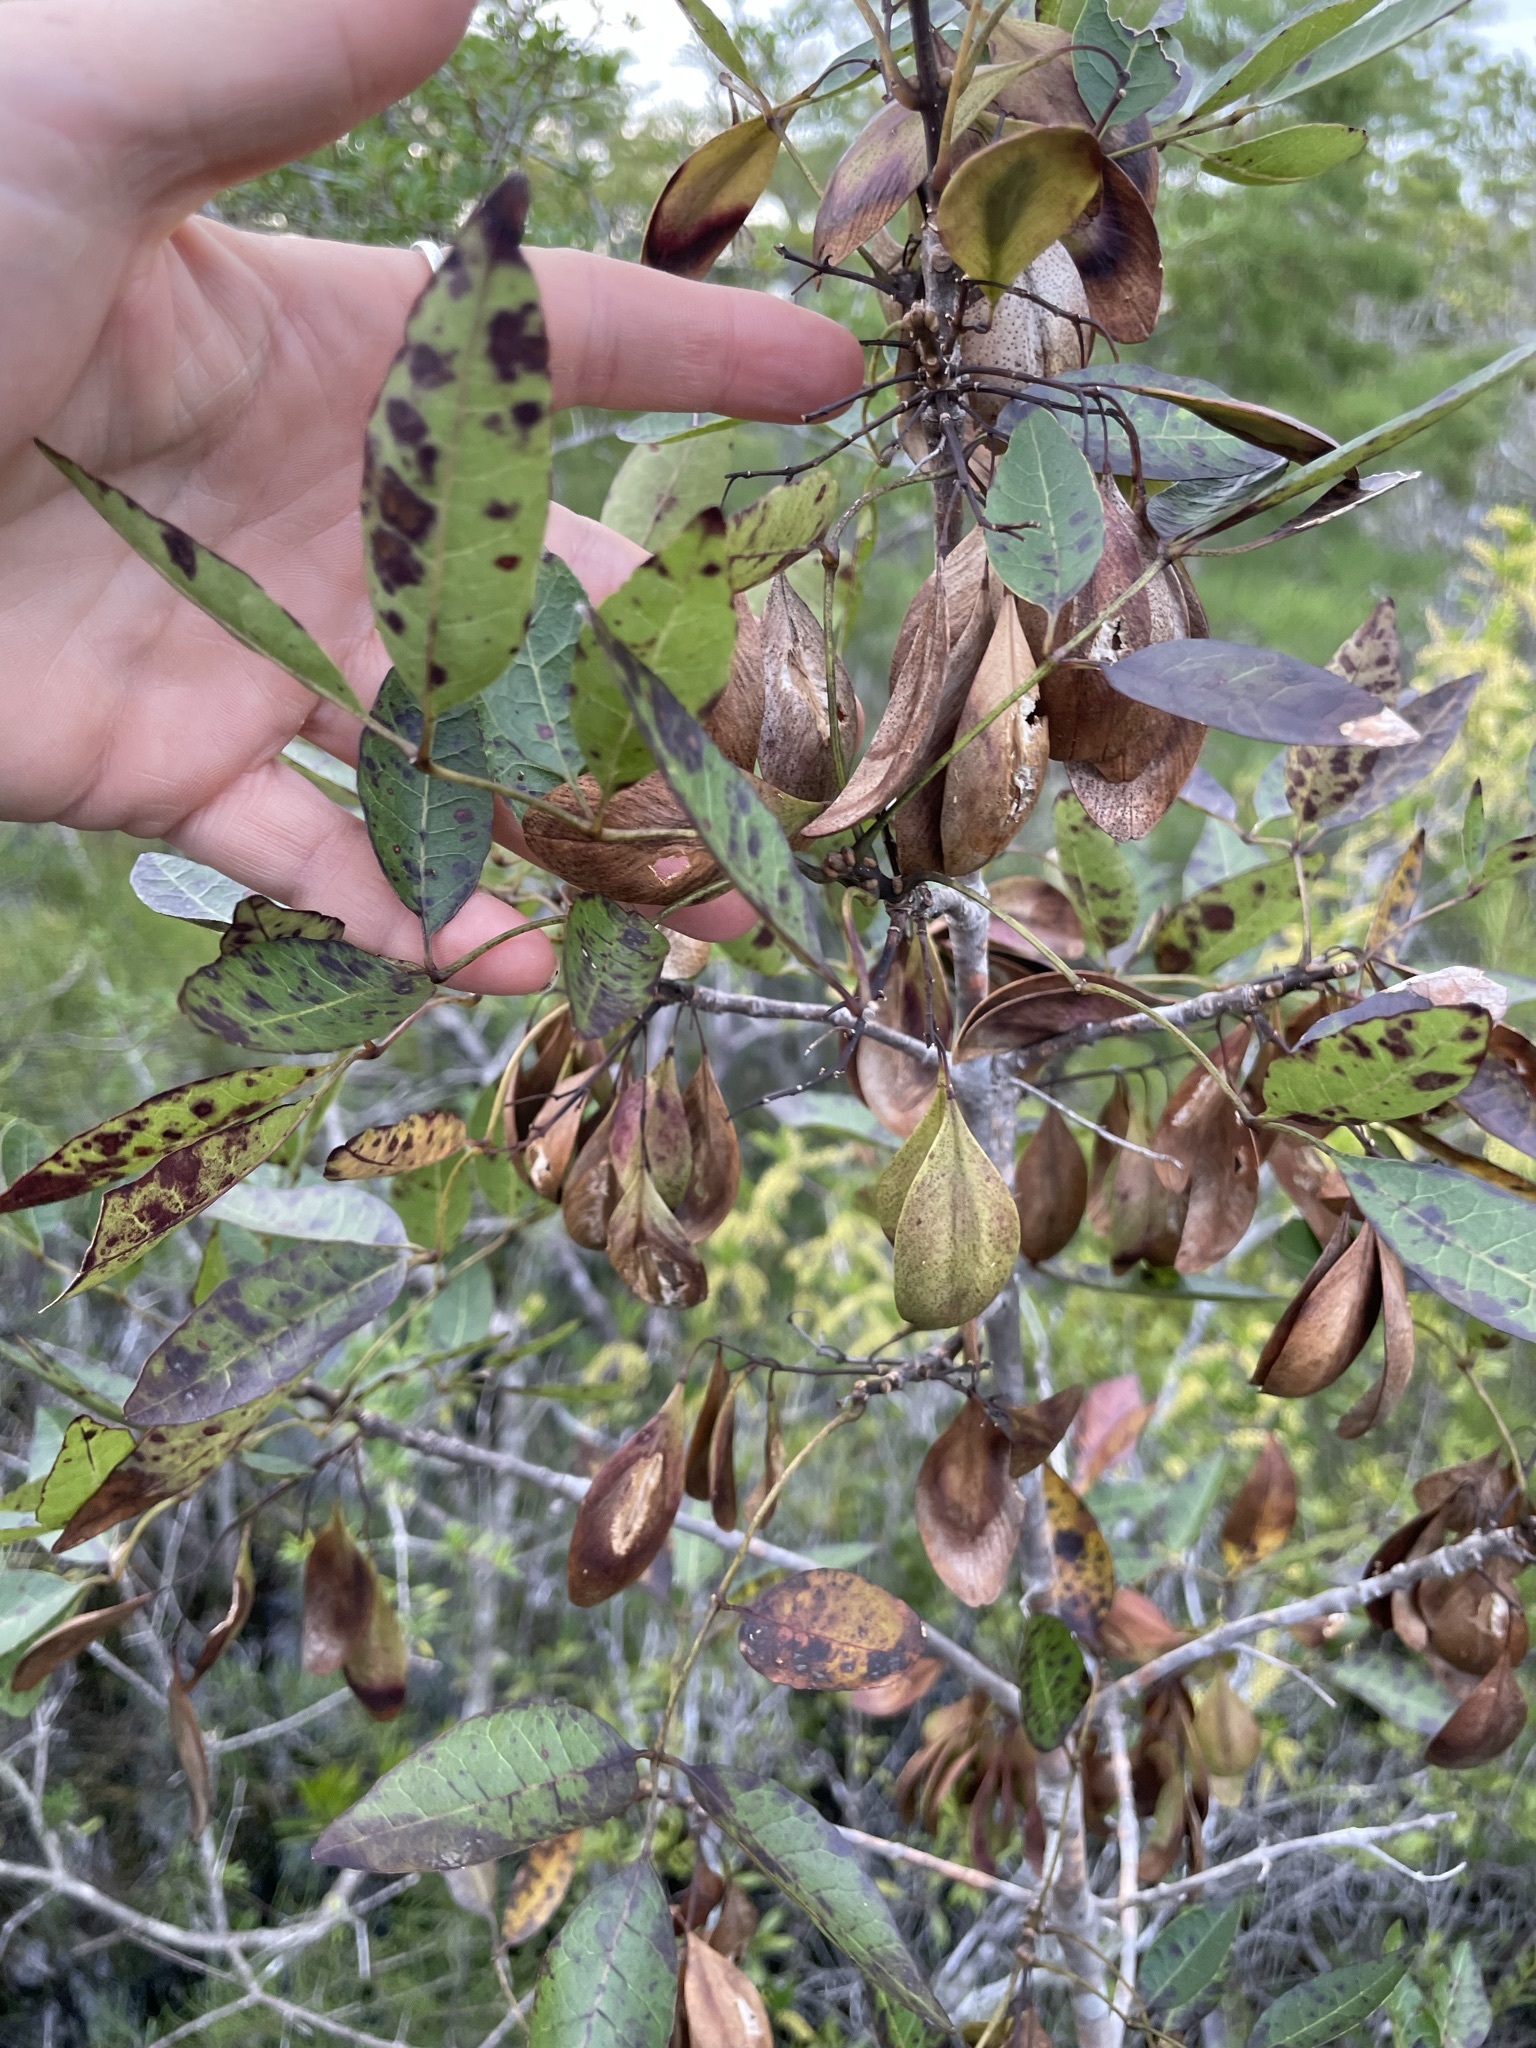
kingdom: Plantae
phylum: Tracheophyta
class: Magnoliopsida
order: Lamiales
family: Oleaceae
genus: Fraxinus
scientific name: Fraxinus caroliniana
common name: Carolina ash
